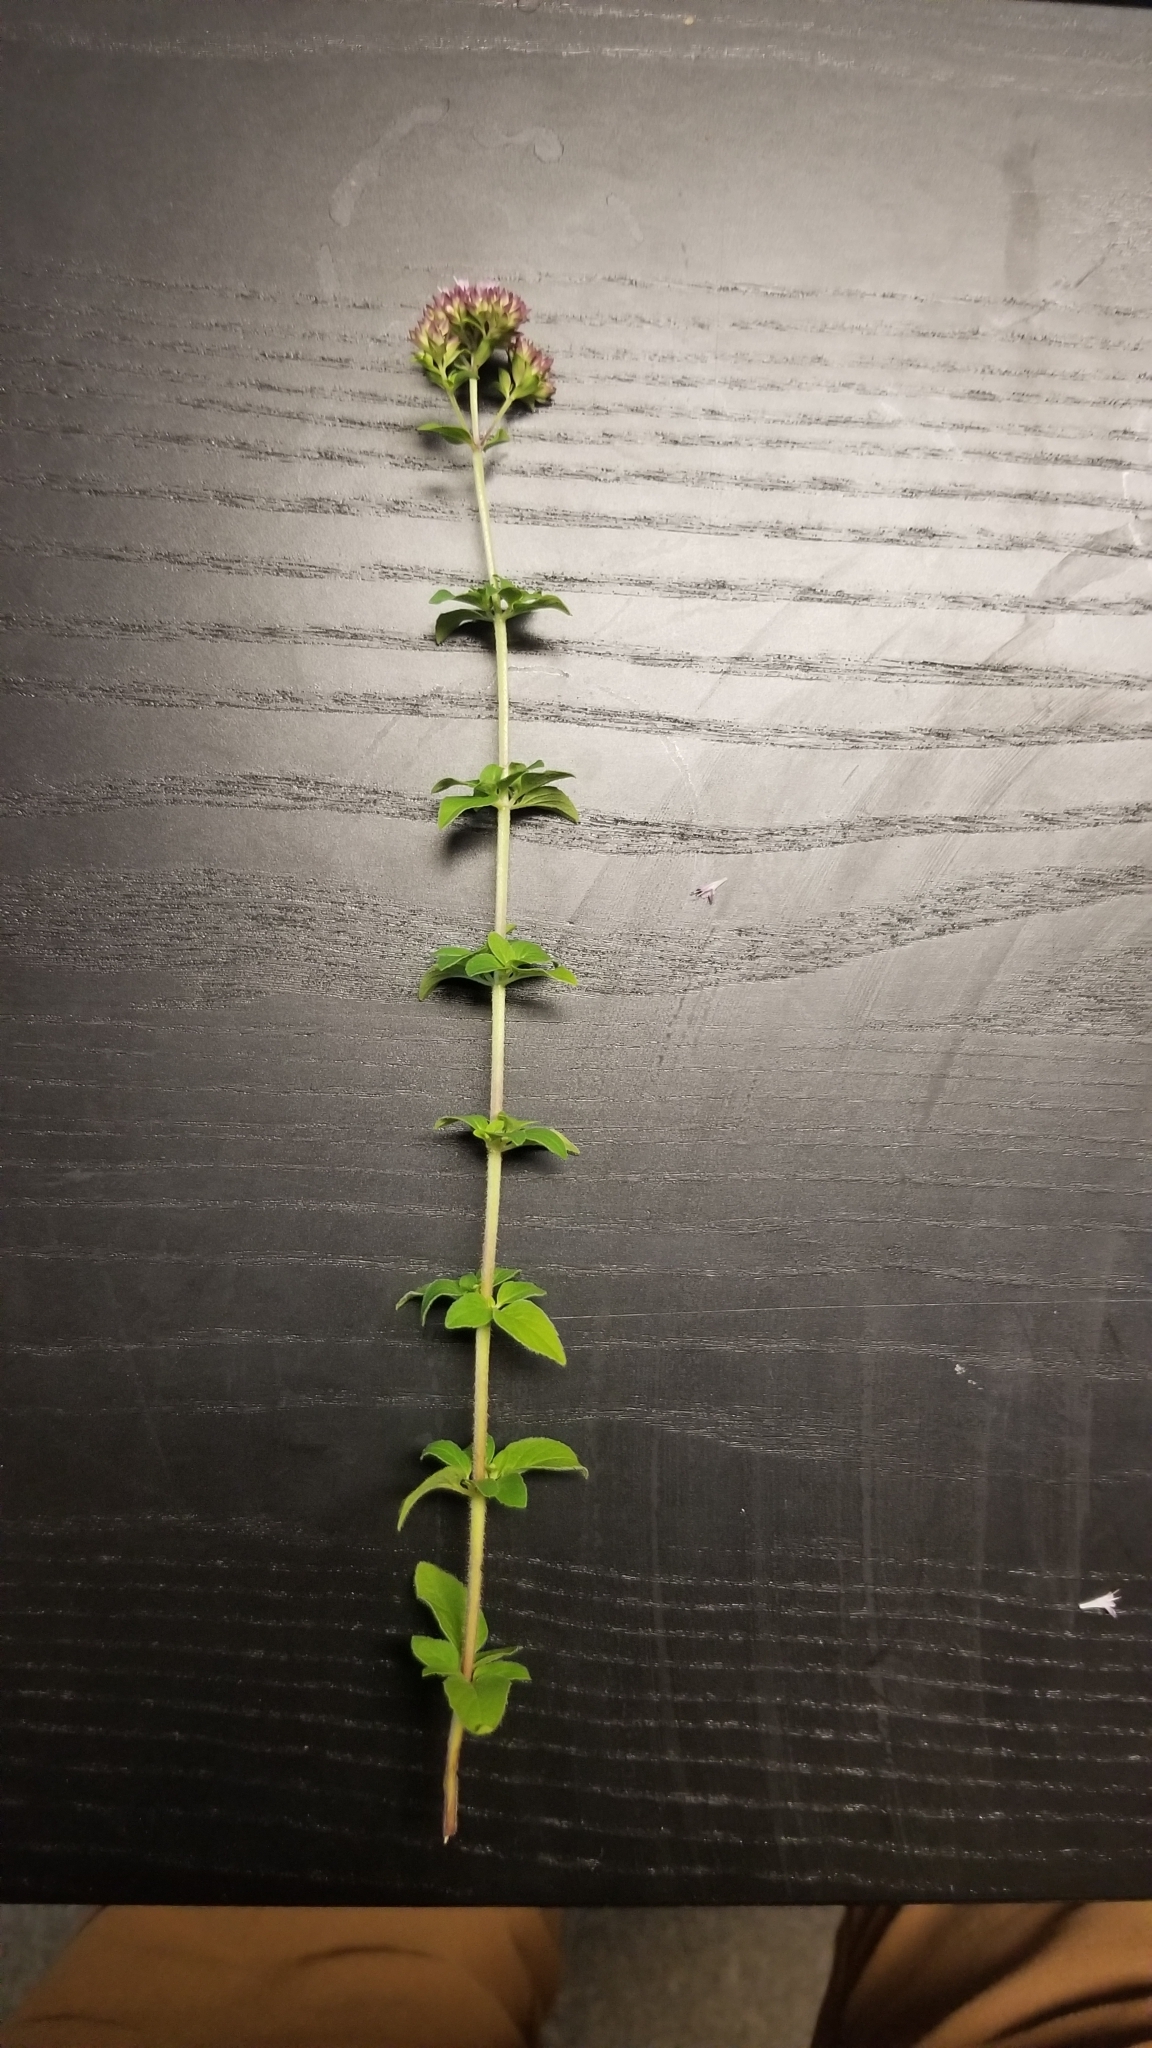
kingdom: Plantae
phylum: Tracheophyta
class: Magnoliopsida
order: Lamiales
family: Lamiaceae
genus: Origanum
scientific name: Origanum vulgare
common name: Wild marjoram
